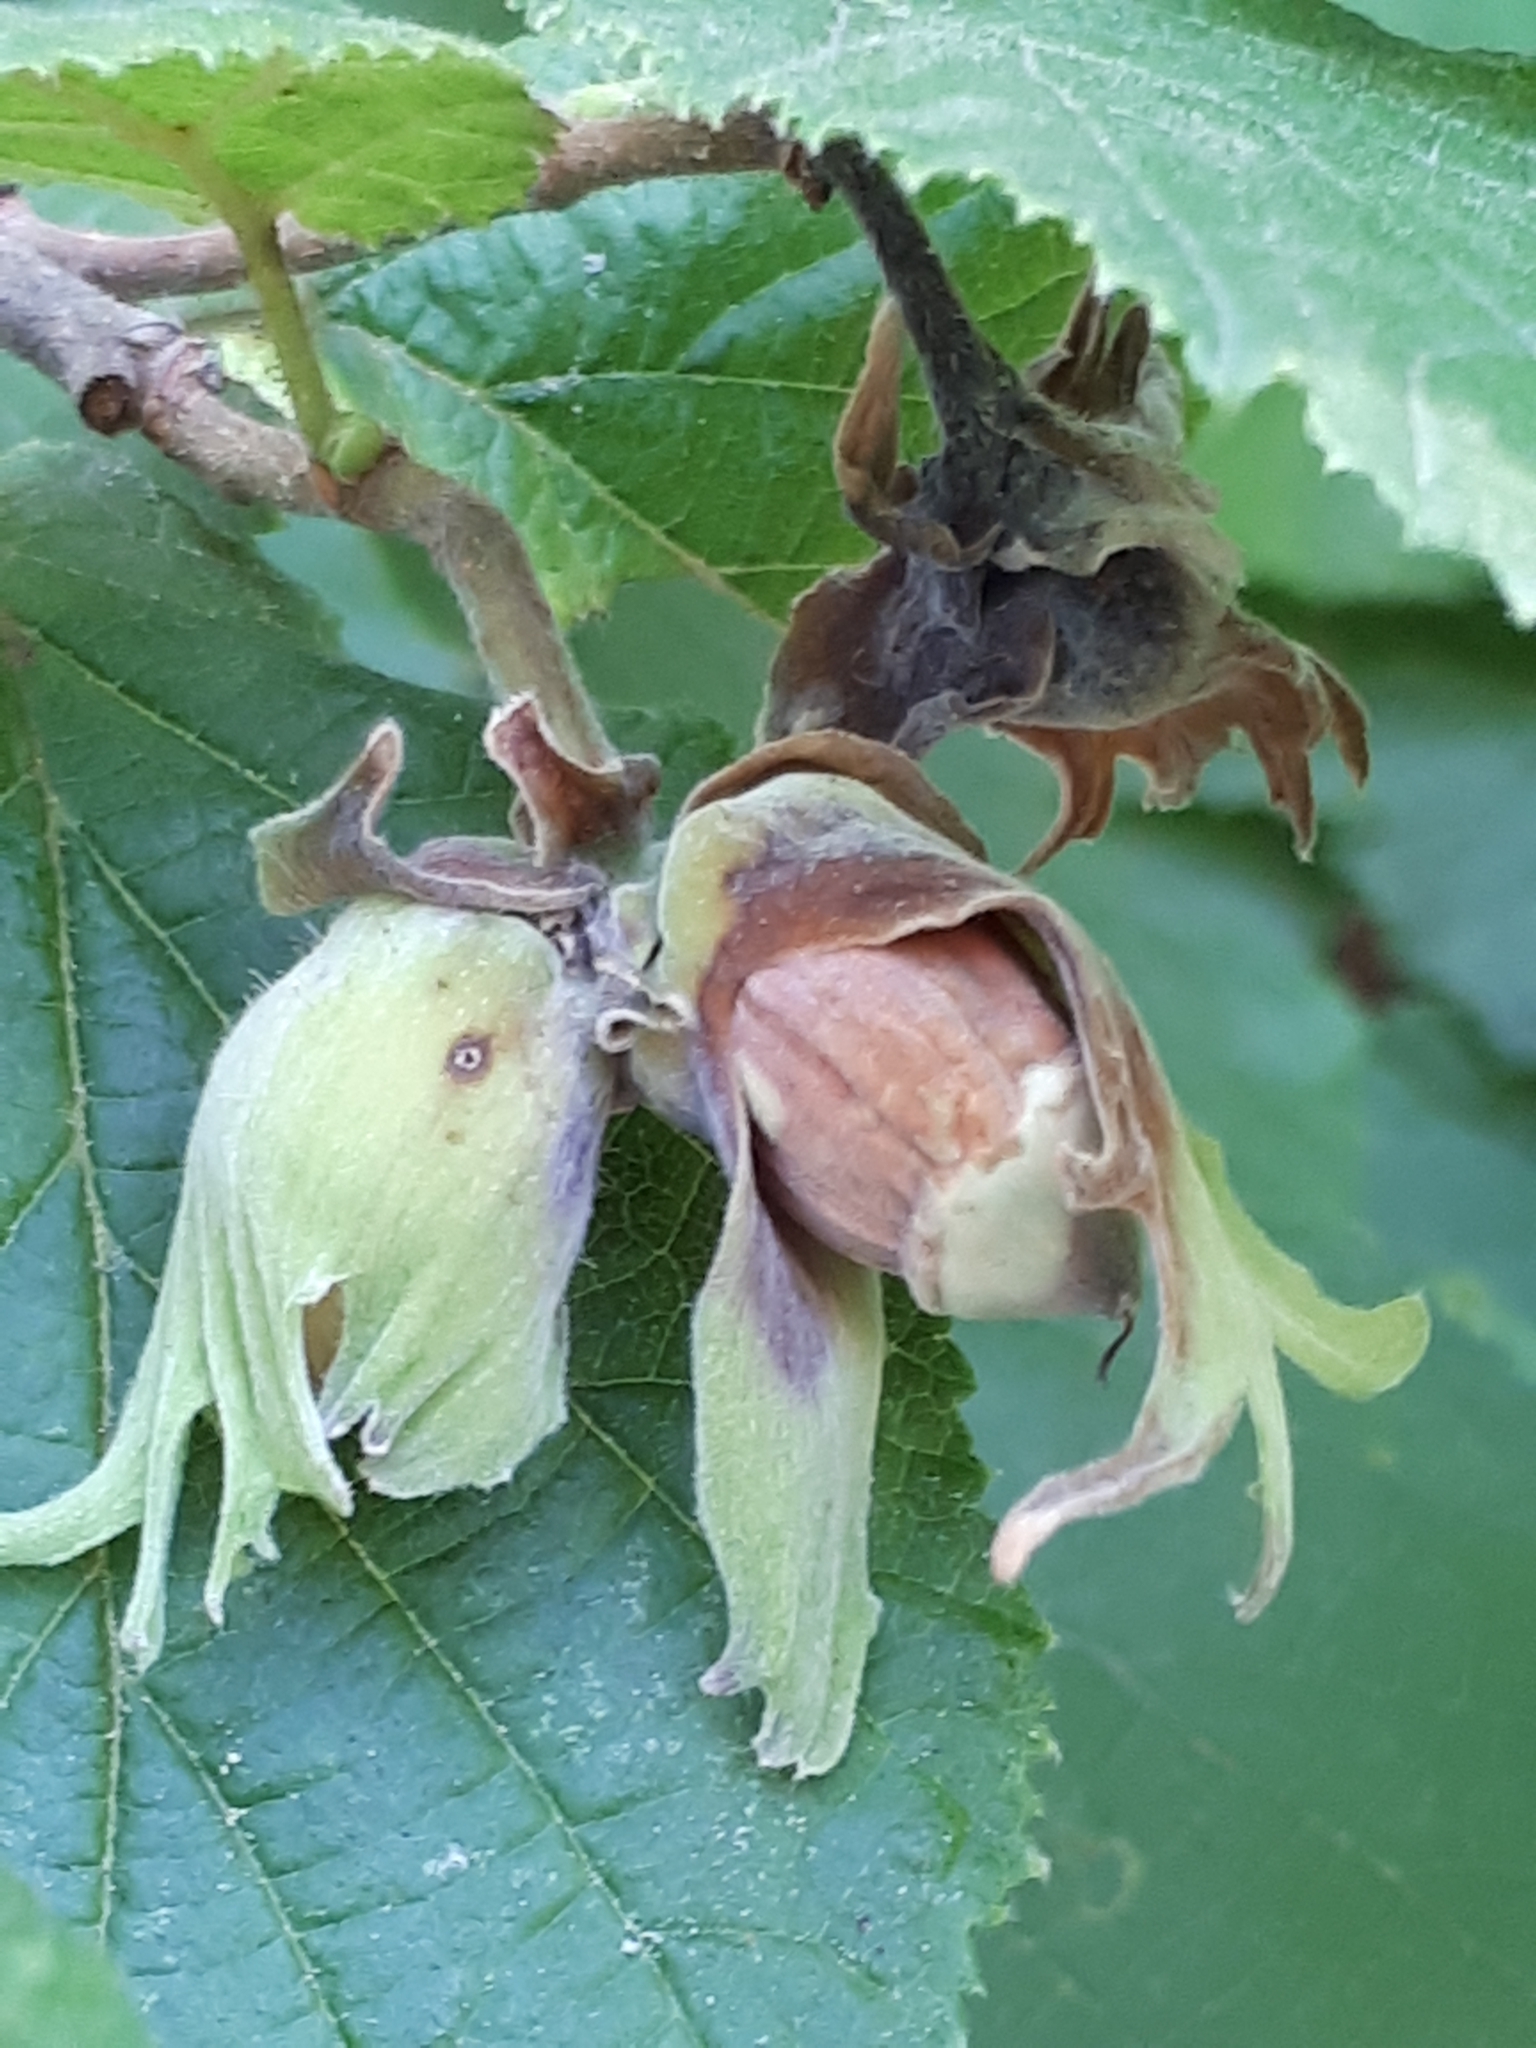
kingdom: Fungi
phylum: Ascomycota
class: Leotiomycetes
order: Helotiales
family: Sclerotiniaceae
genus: Ciboria
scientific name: Ciboria coryli
